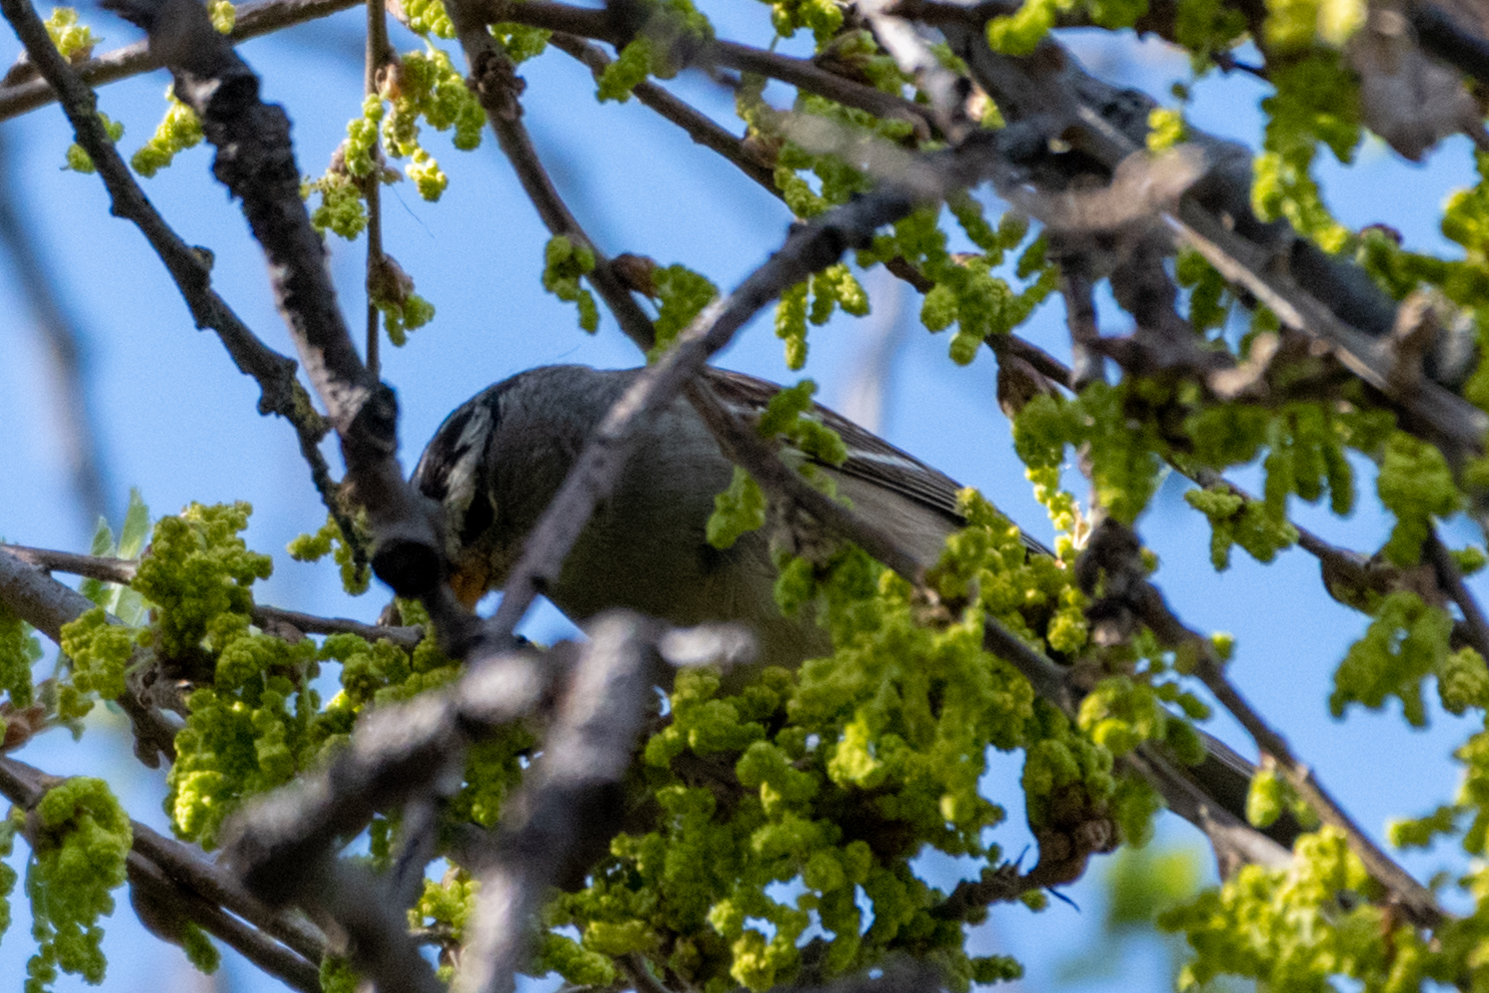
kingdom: Animalia
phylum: Chordata
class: Aves
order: Passeriformes
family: Passerellidae
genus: Zonotrichia
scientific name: Zonotrichia leucophrys
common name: White-crowned sparrow
